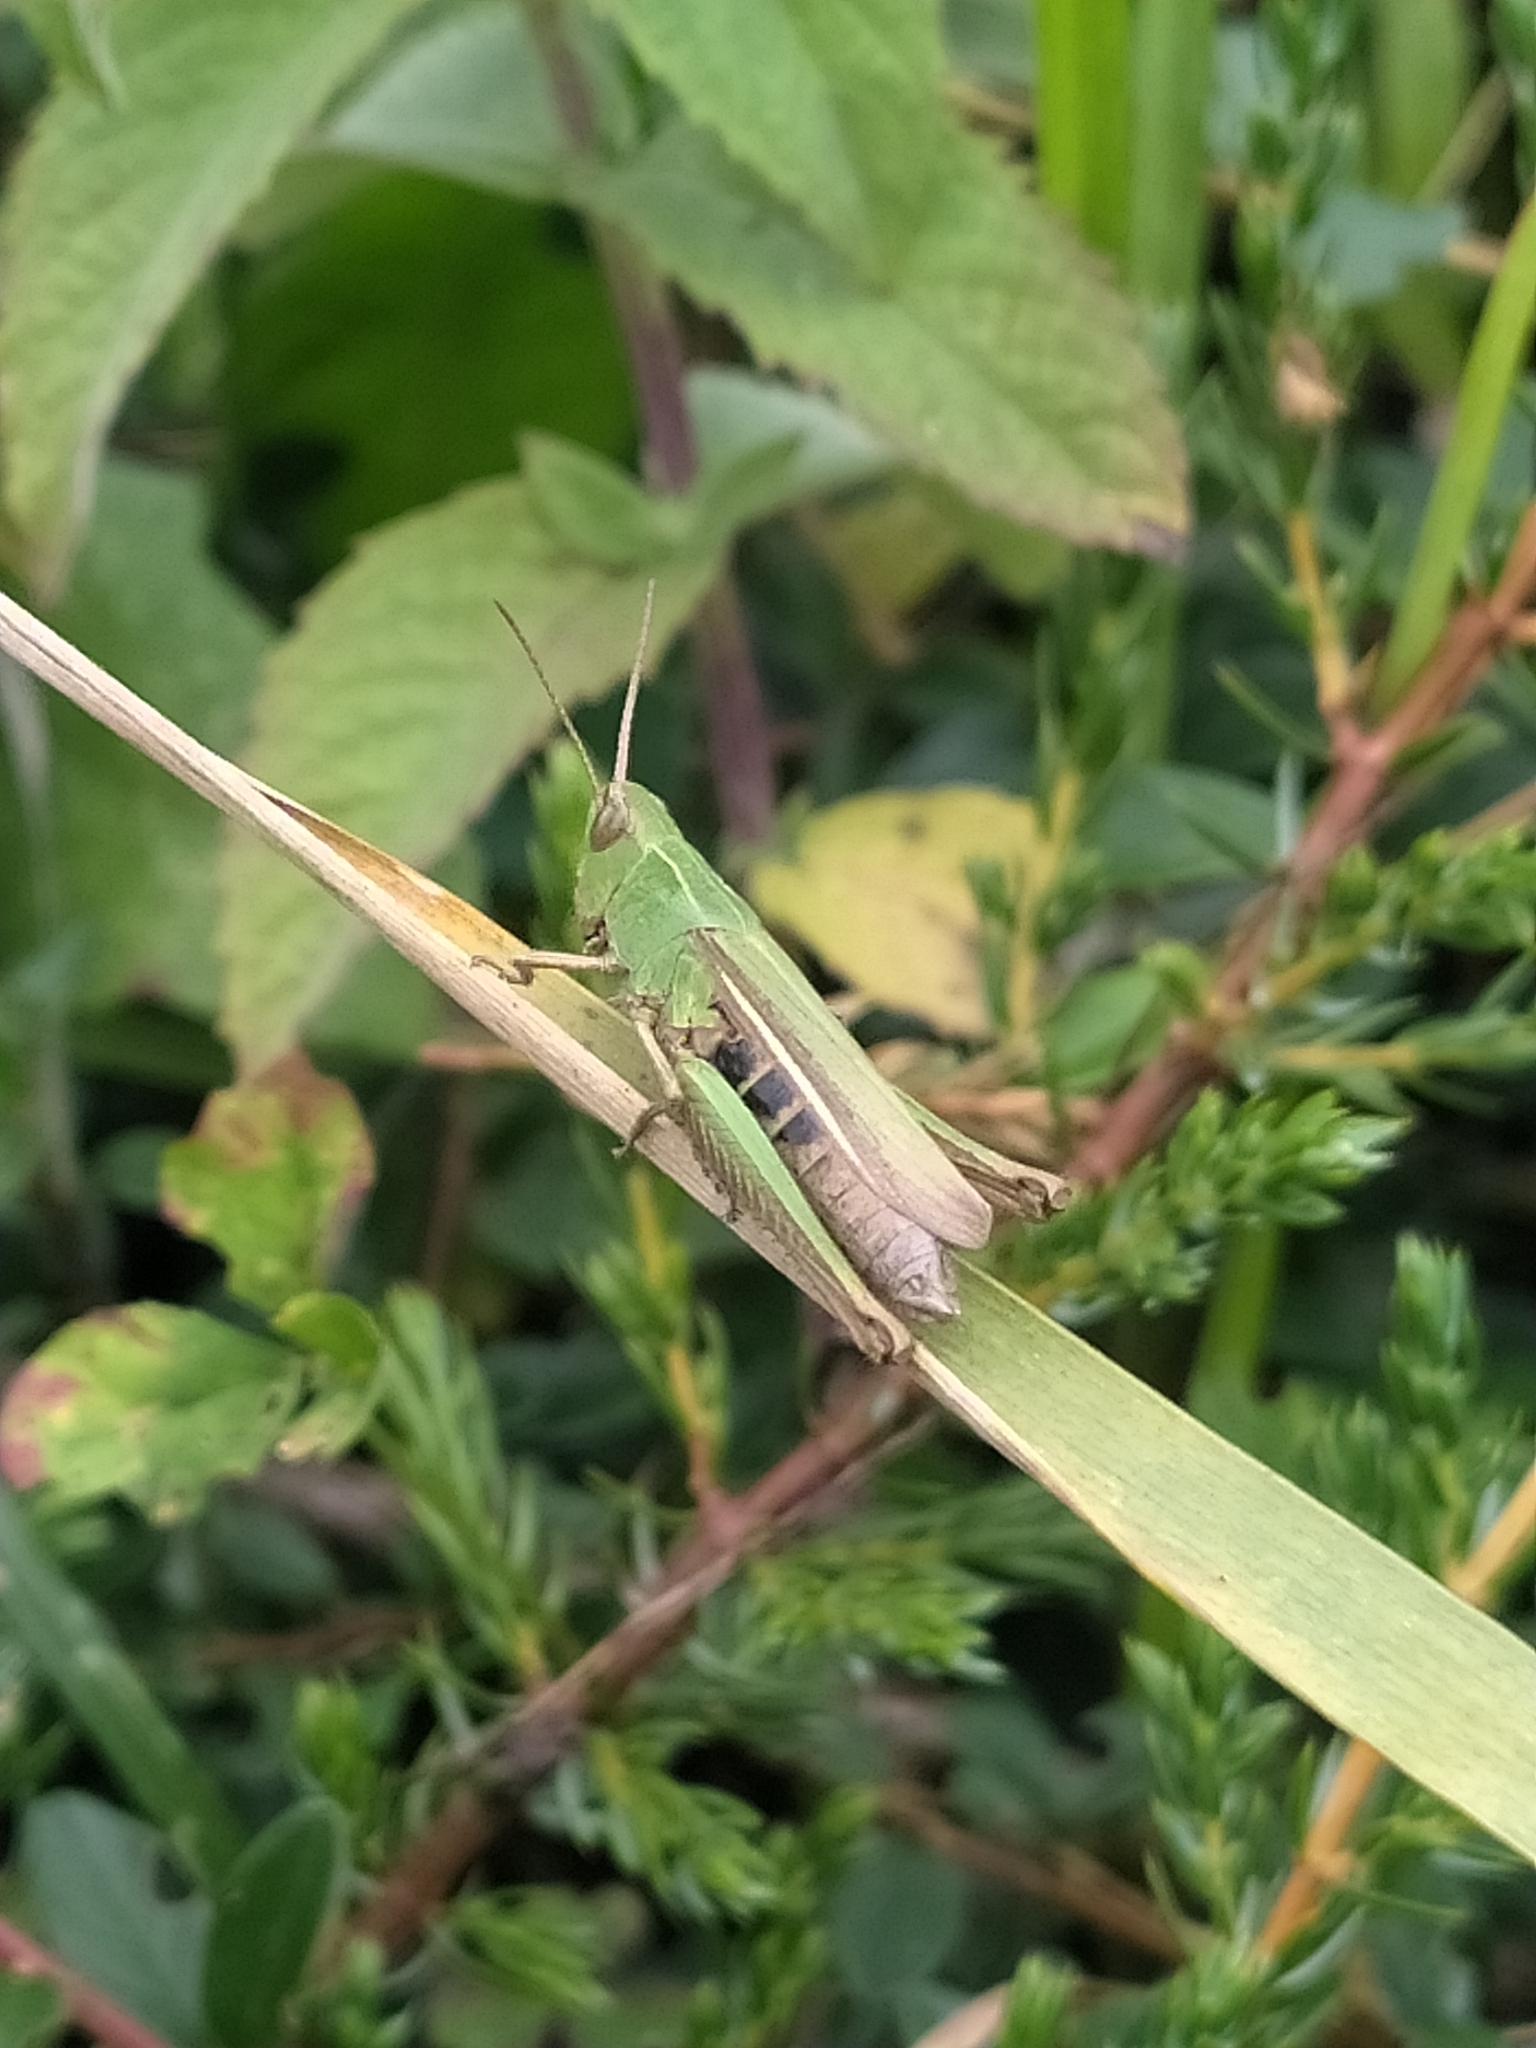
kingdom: Animalia
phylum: Arthropoda
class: Insecta
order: Orthoptera
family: Acrididae
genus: Chorthippus
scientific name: Chorthippus dorsatus
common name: Steppe grasshopper
